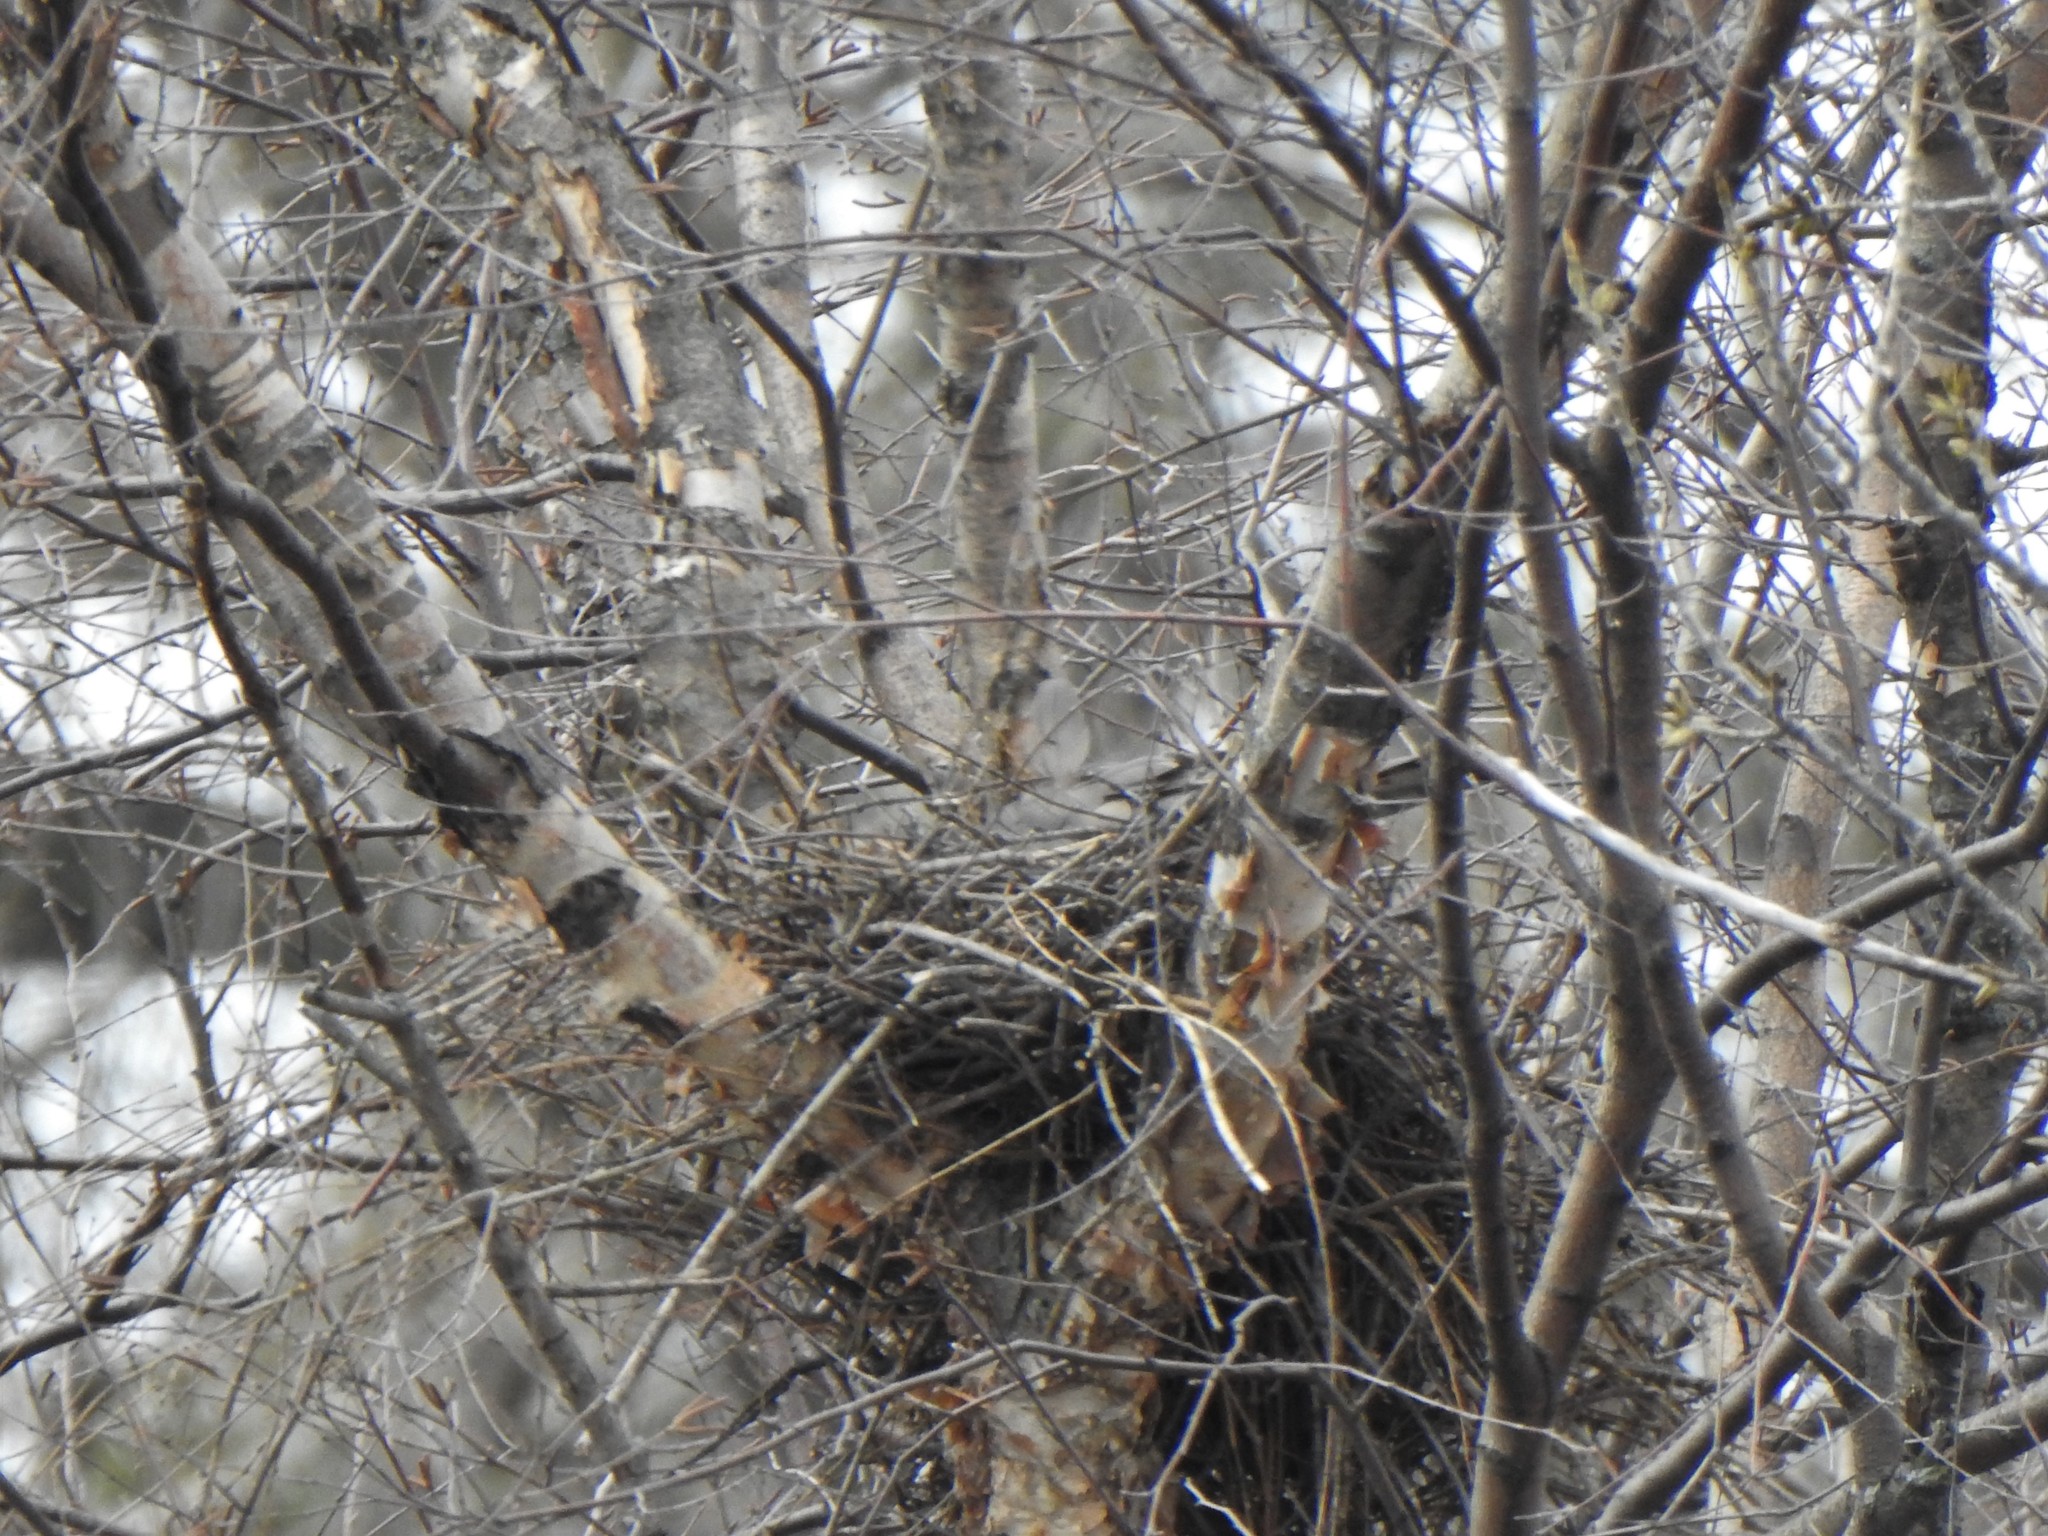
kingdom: Animalia
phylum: Chordata
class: Aves
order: Accipitriformes
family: Accipitridae
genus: Accipiter
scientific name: Accipiter cooperii
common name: Cooper's hawk
